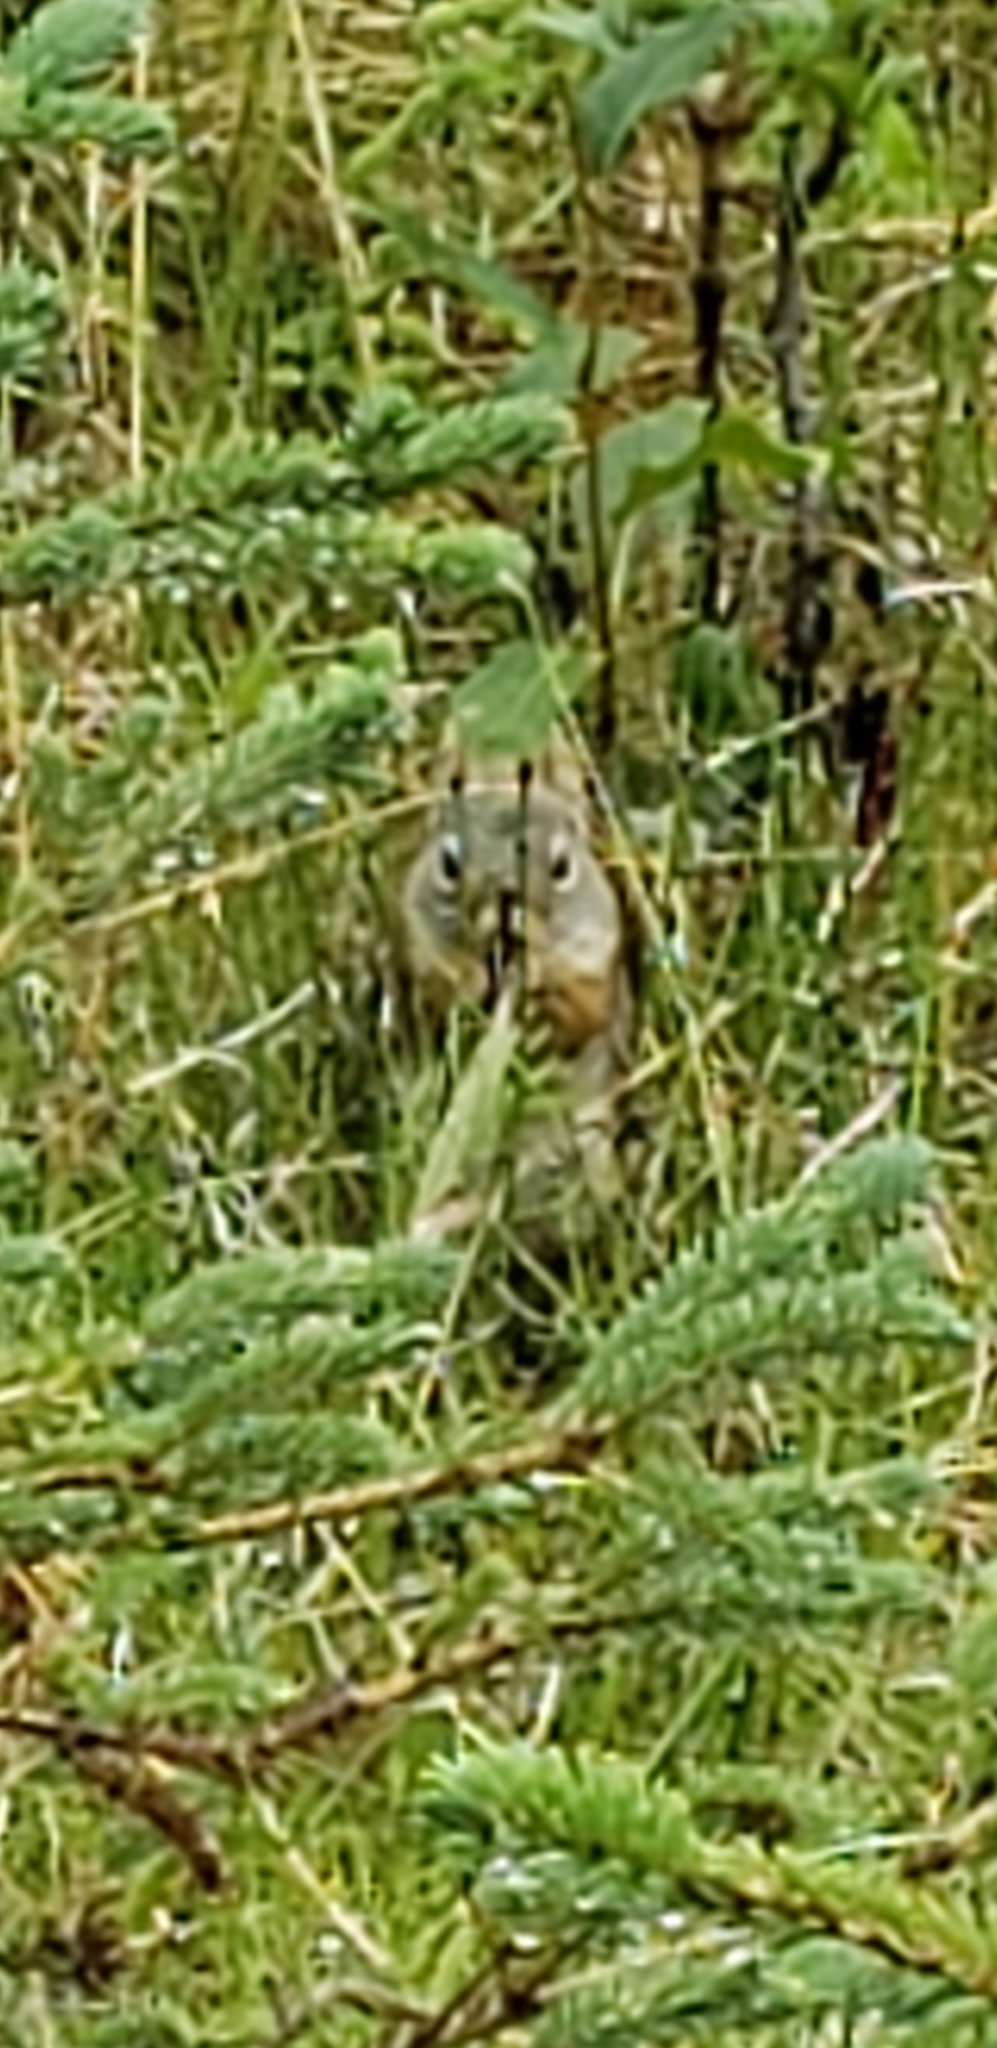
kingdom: Animalia
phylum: Chordata
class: Mammalia
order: Rodentia
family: Sciuridae
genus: Tamiasciurus
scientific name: Tamiasciurus hudsonicus
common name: Red squirrel
